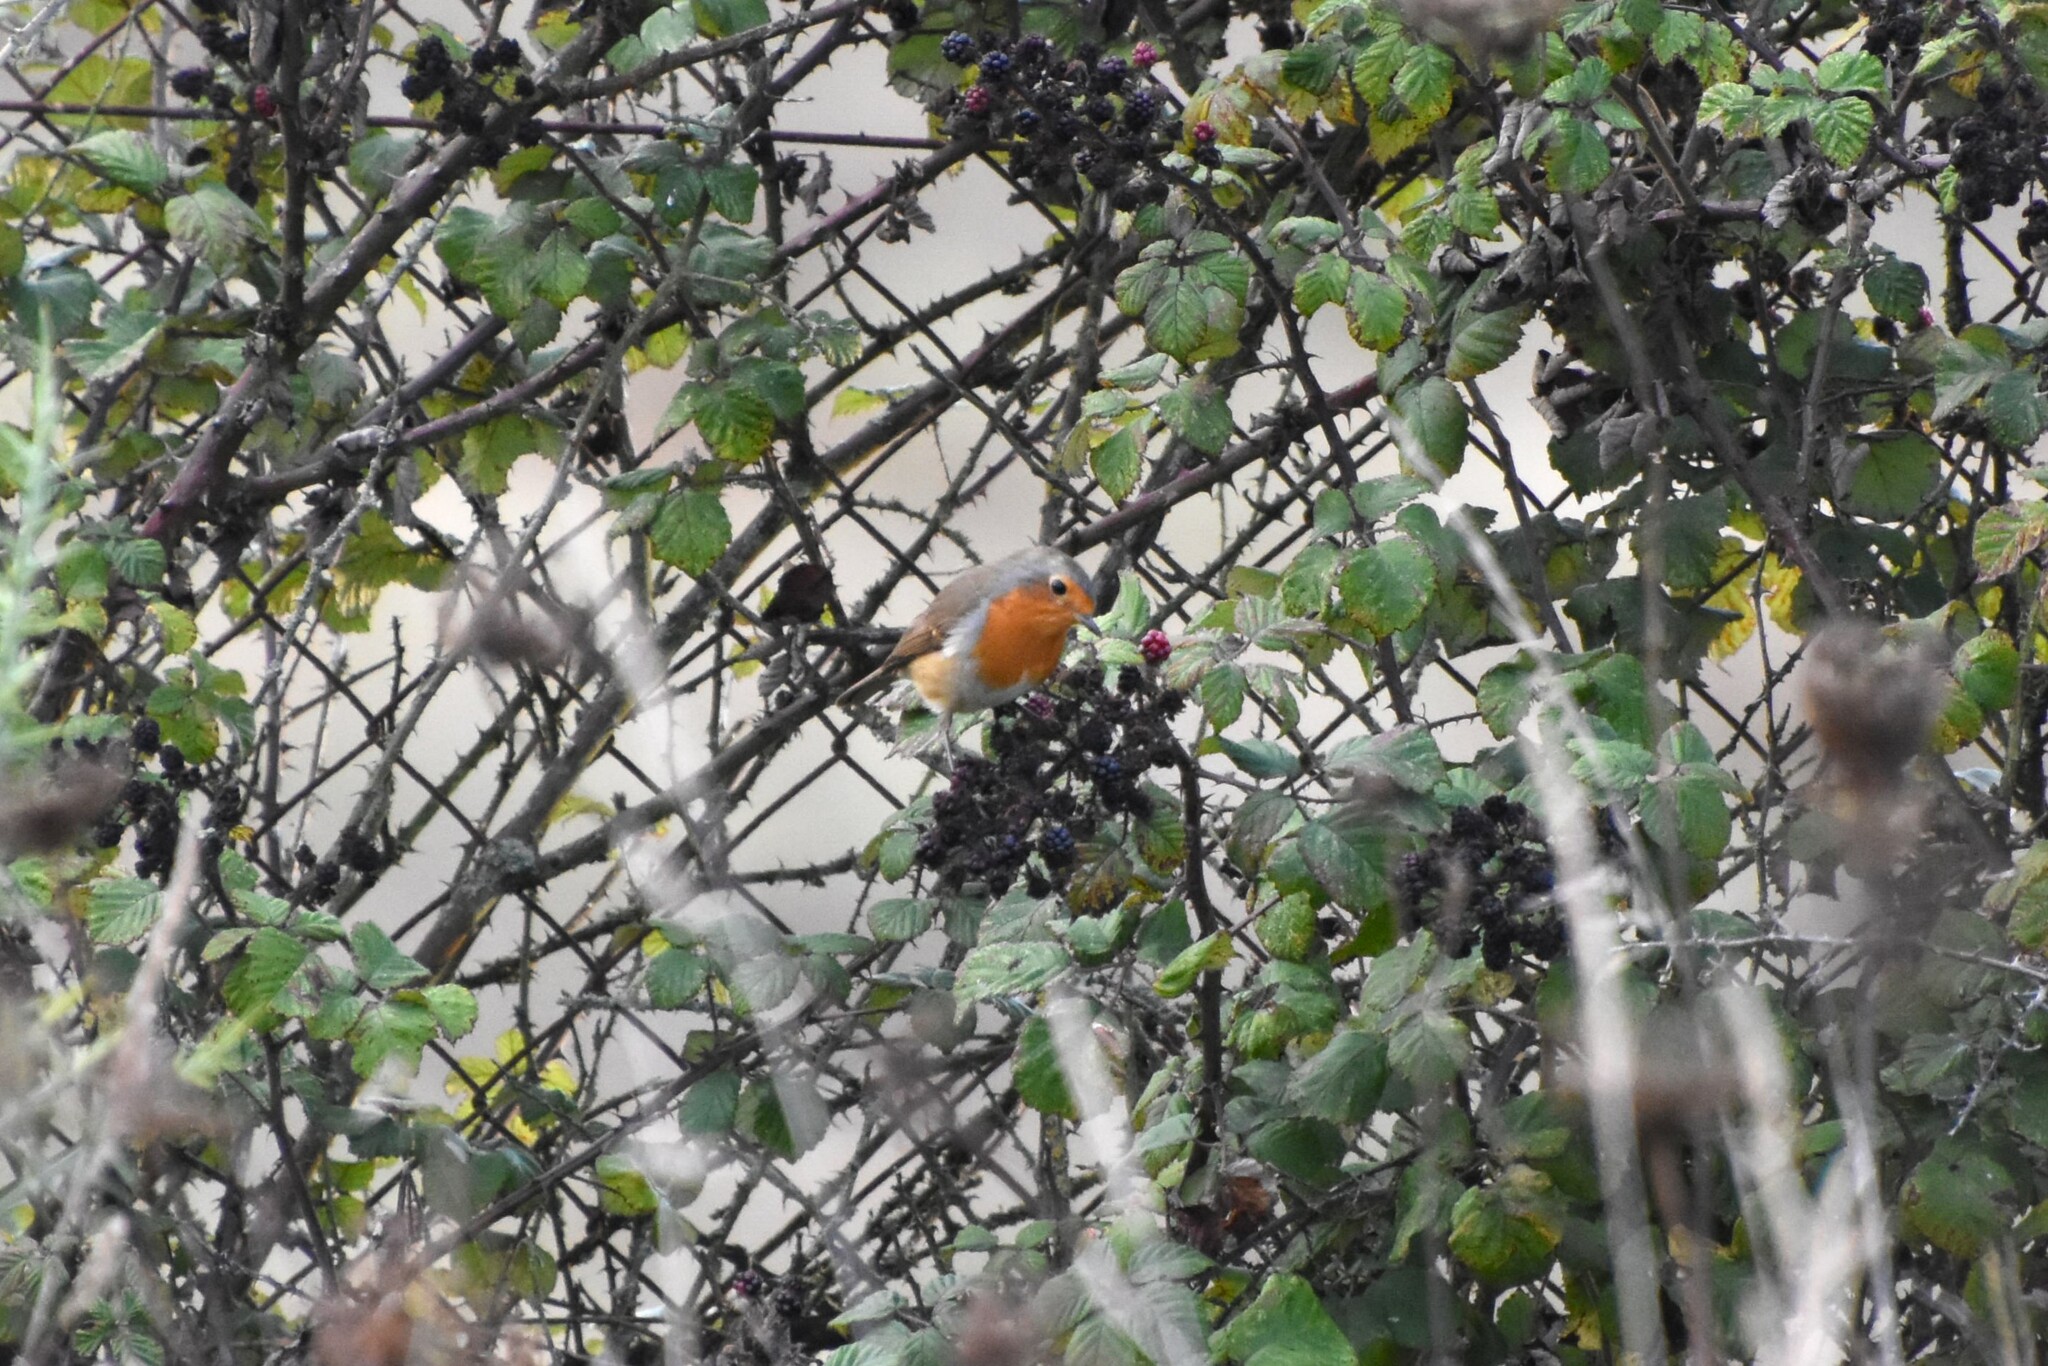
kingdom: Animalia
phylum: Chordata
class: Aves
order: Passeriformes
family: Muscicapidae
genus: Erithacus
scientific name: Erithacus rubecula
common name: European robin
